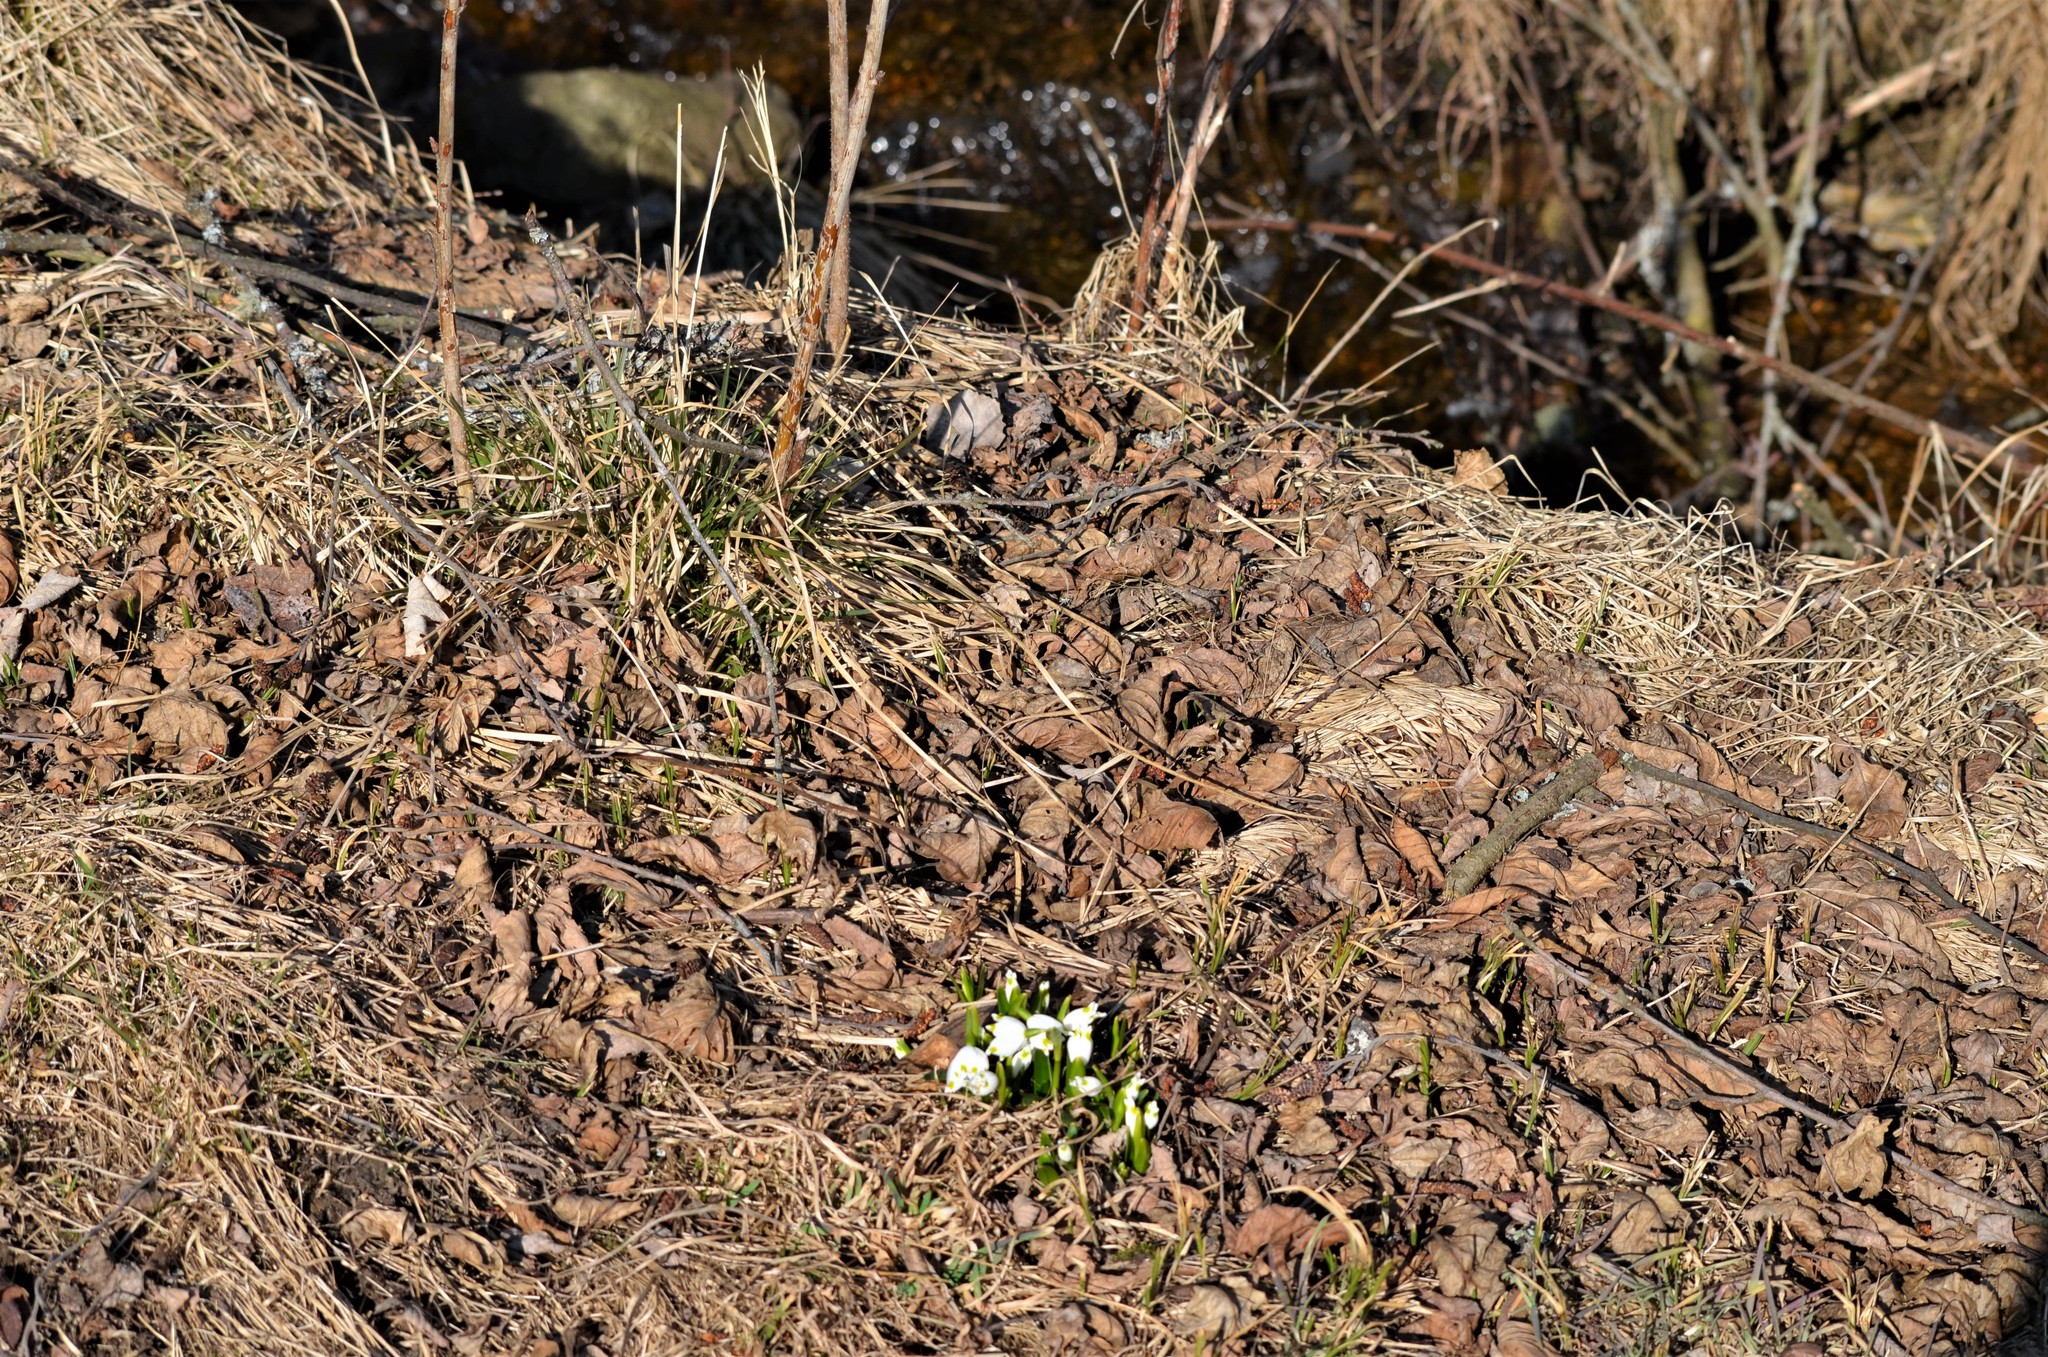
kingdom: Plantae
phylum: Tracheophyta
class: Liliopsida
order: Asparagales
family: Amaryllidaceae
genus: Leucojum
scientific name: Leucojum vernum
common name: Spring snowflake
